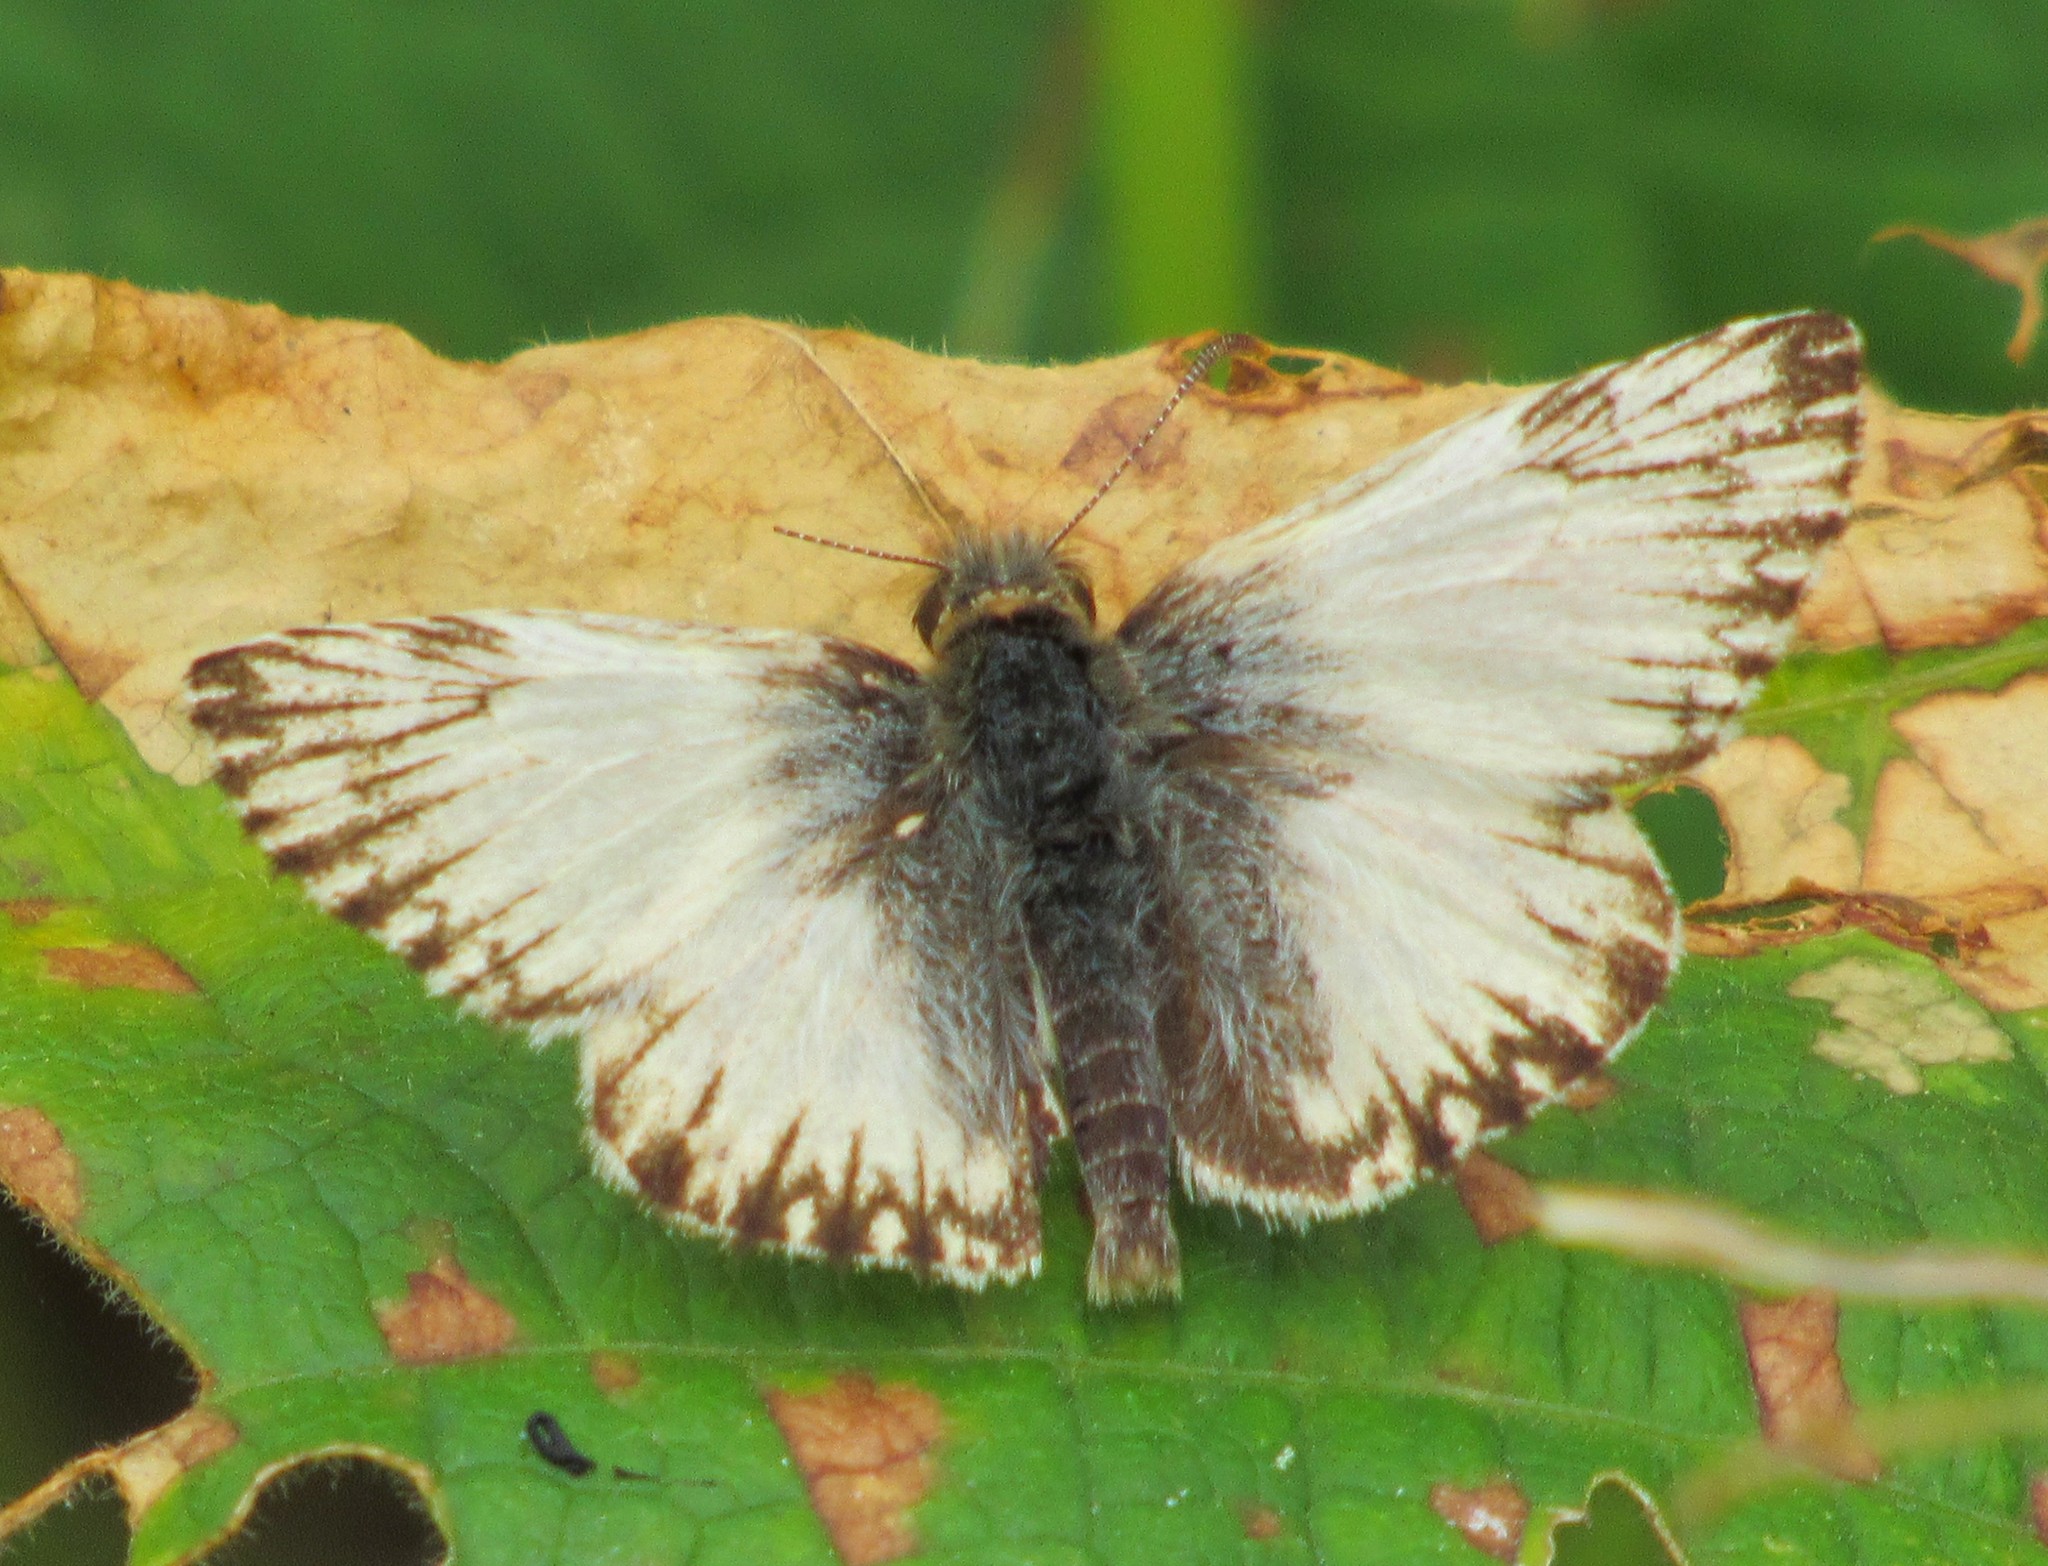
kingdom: Animalia
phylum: Arthropoda
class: Insecta
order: Lepidoptera
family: Hesperiidae
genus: Heliopetes
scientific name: Heliopetes omrina
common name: Stained white-skipper
